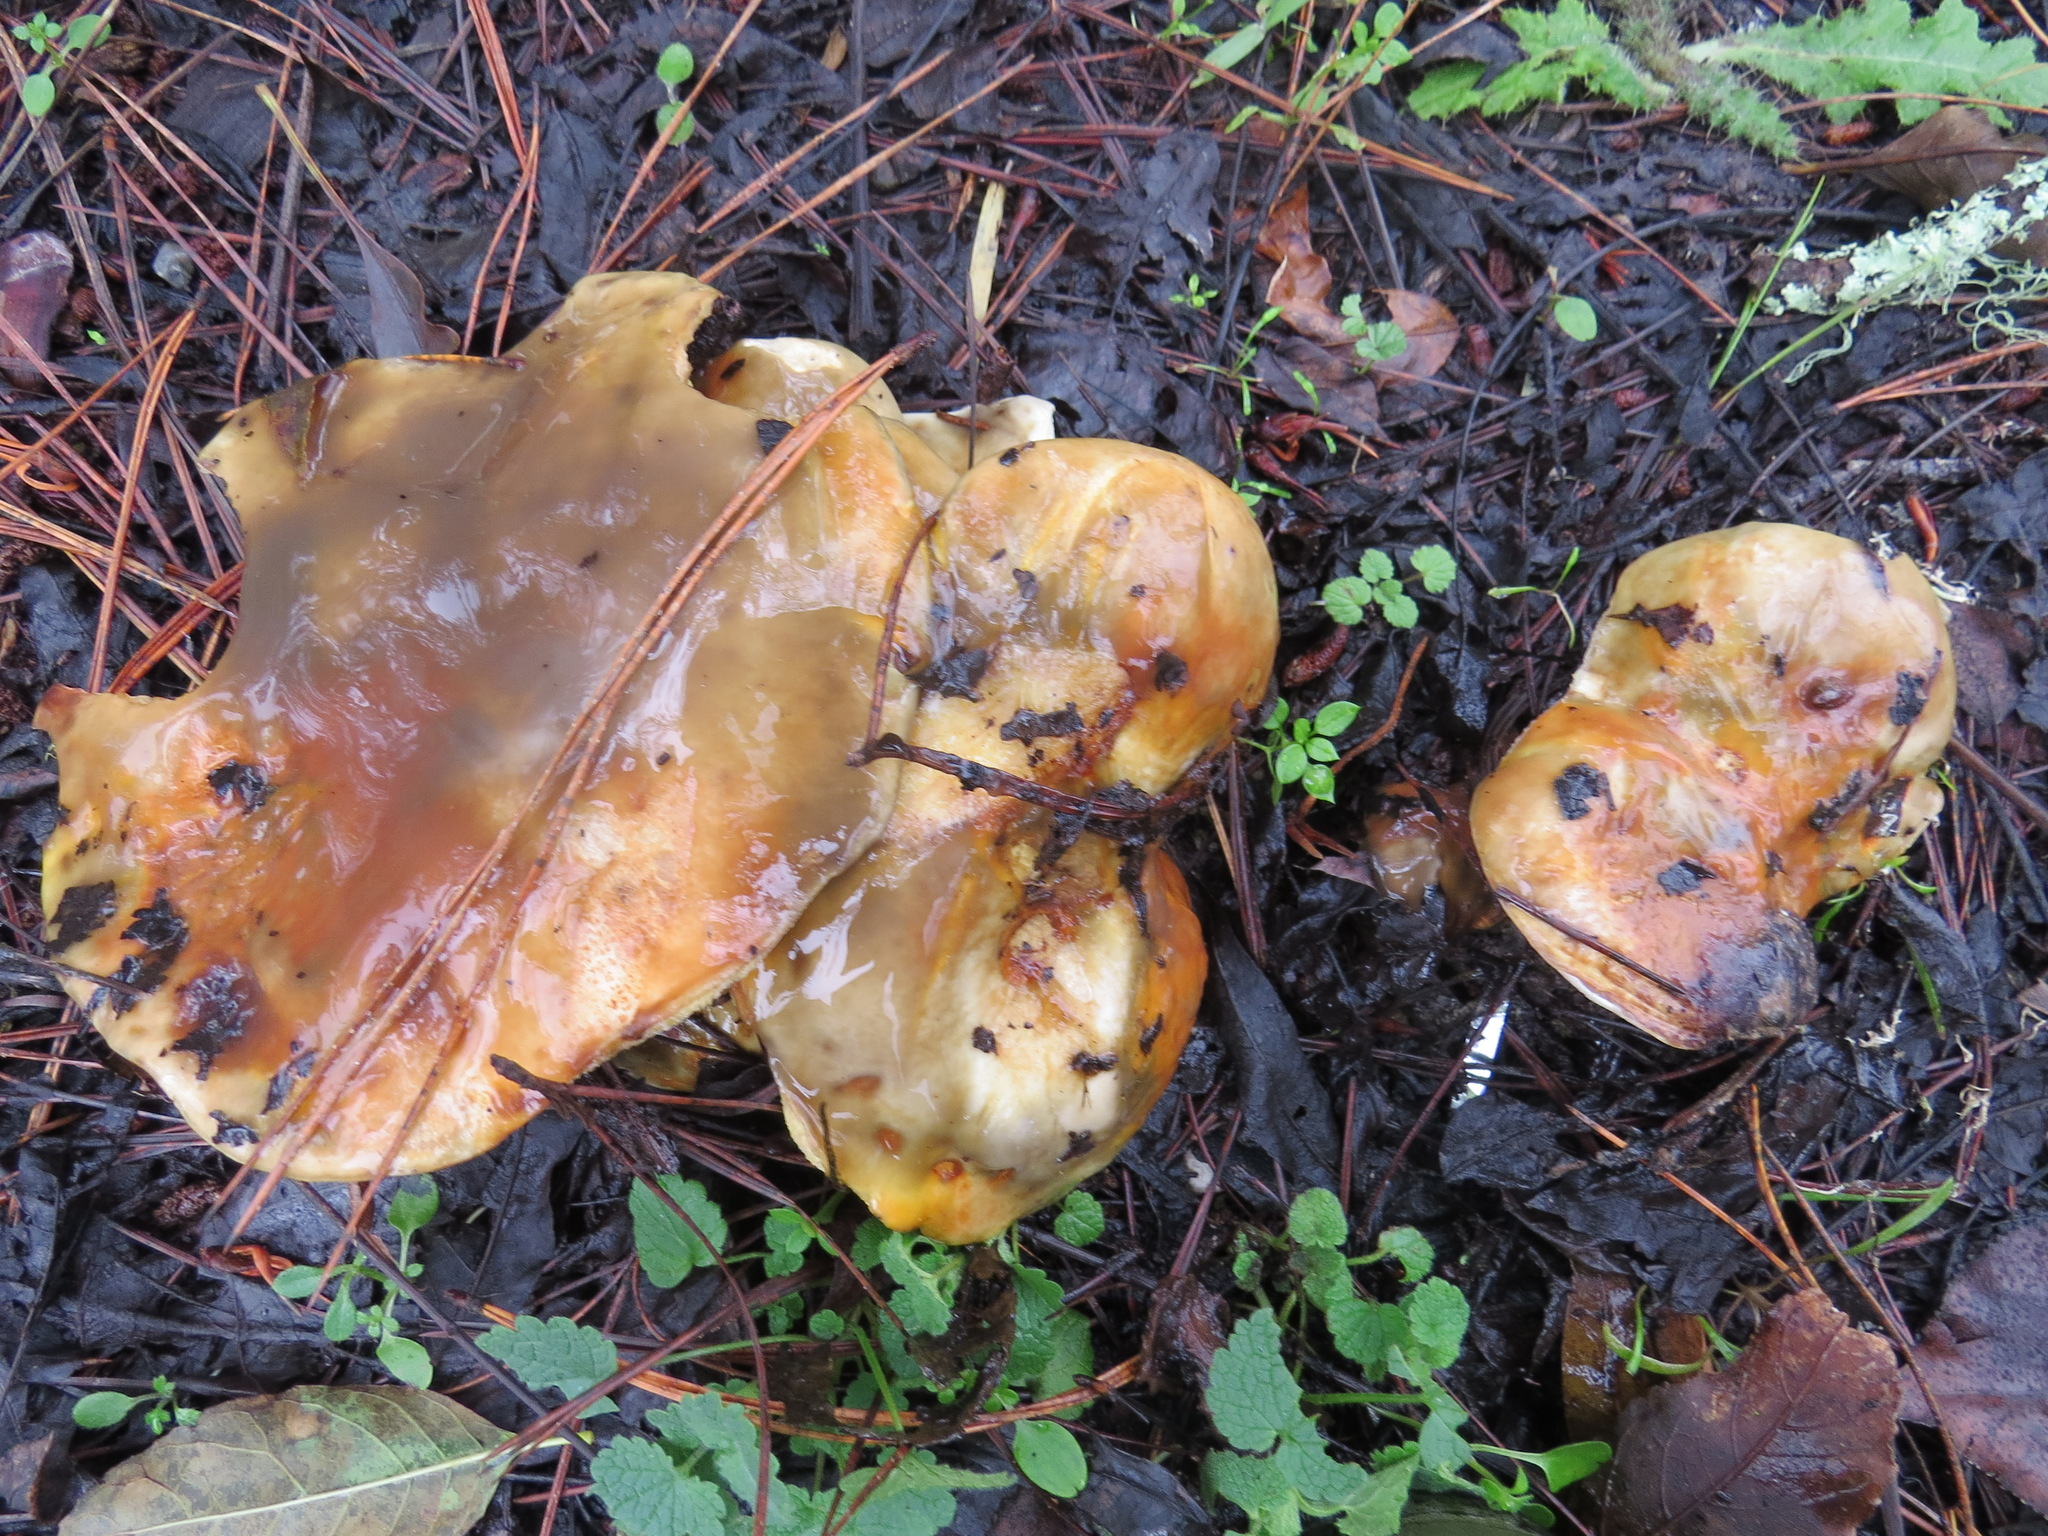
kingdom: Fungi
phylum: Basidiomycota
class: Agaricomycetes
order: Boletales
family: Suillaceae
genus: Suillus
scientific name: Suillus pungens
